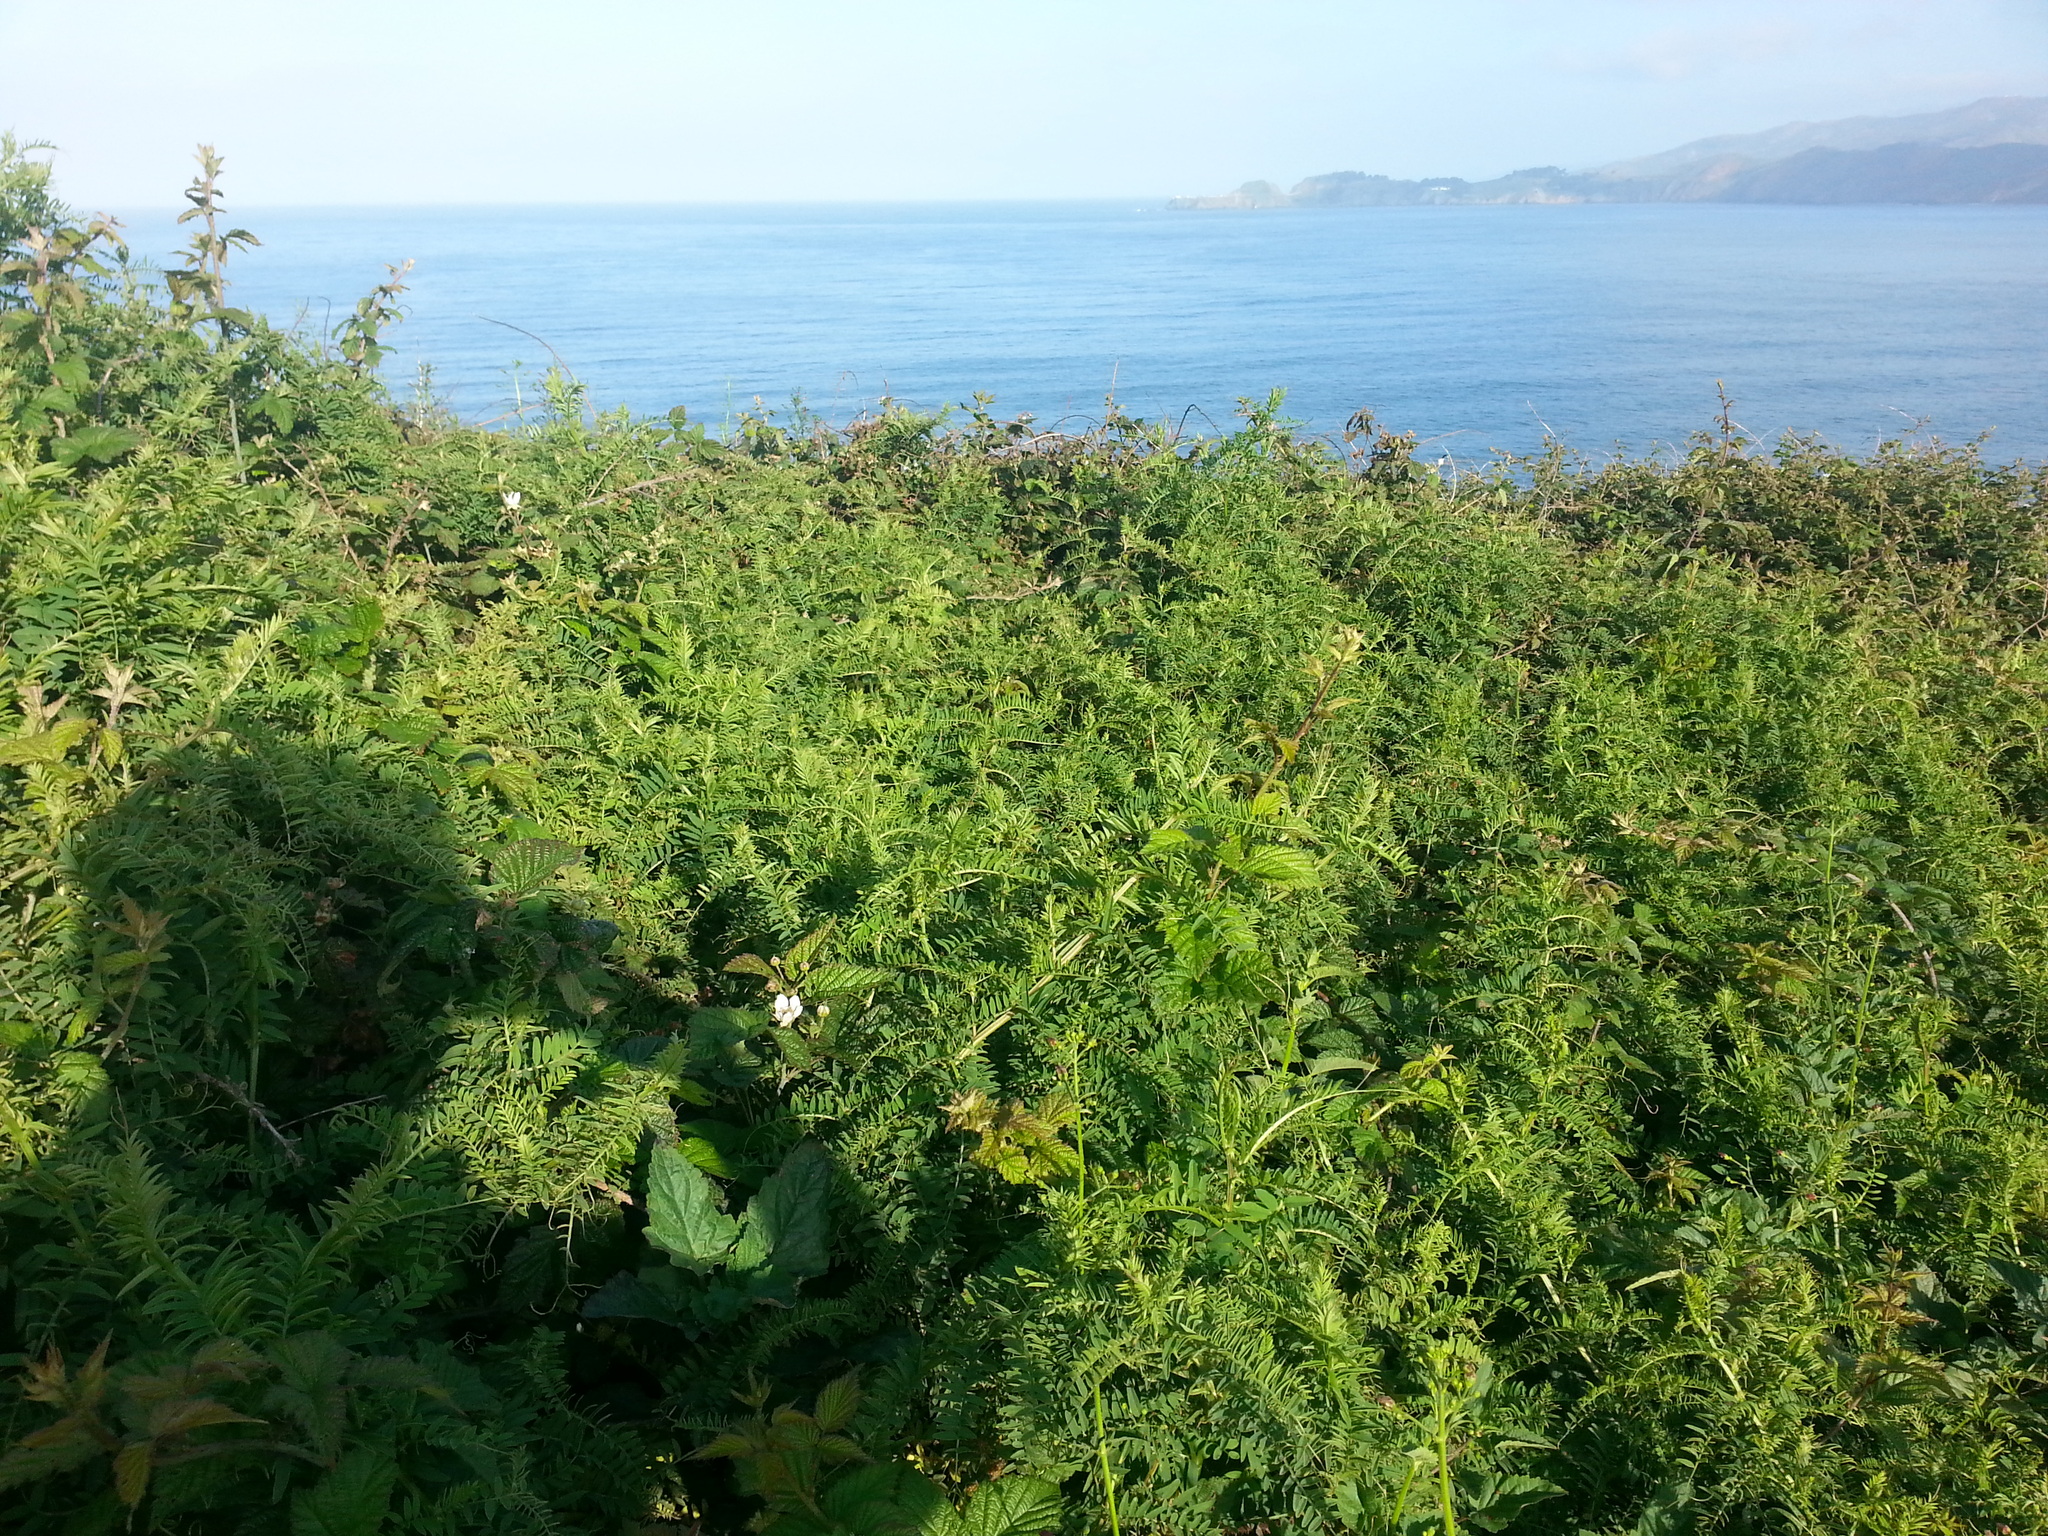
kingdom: Plantae
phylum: Tracheophyta
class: Magnoliopsida
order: Fabales
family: Fabaceae
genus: Vicia
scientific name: Vicia
